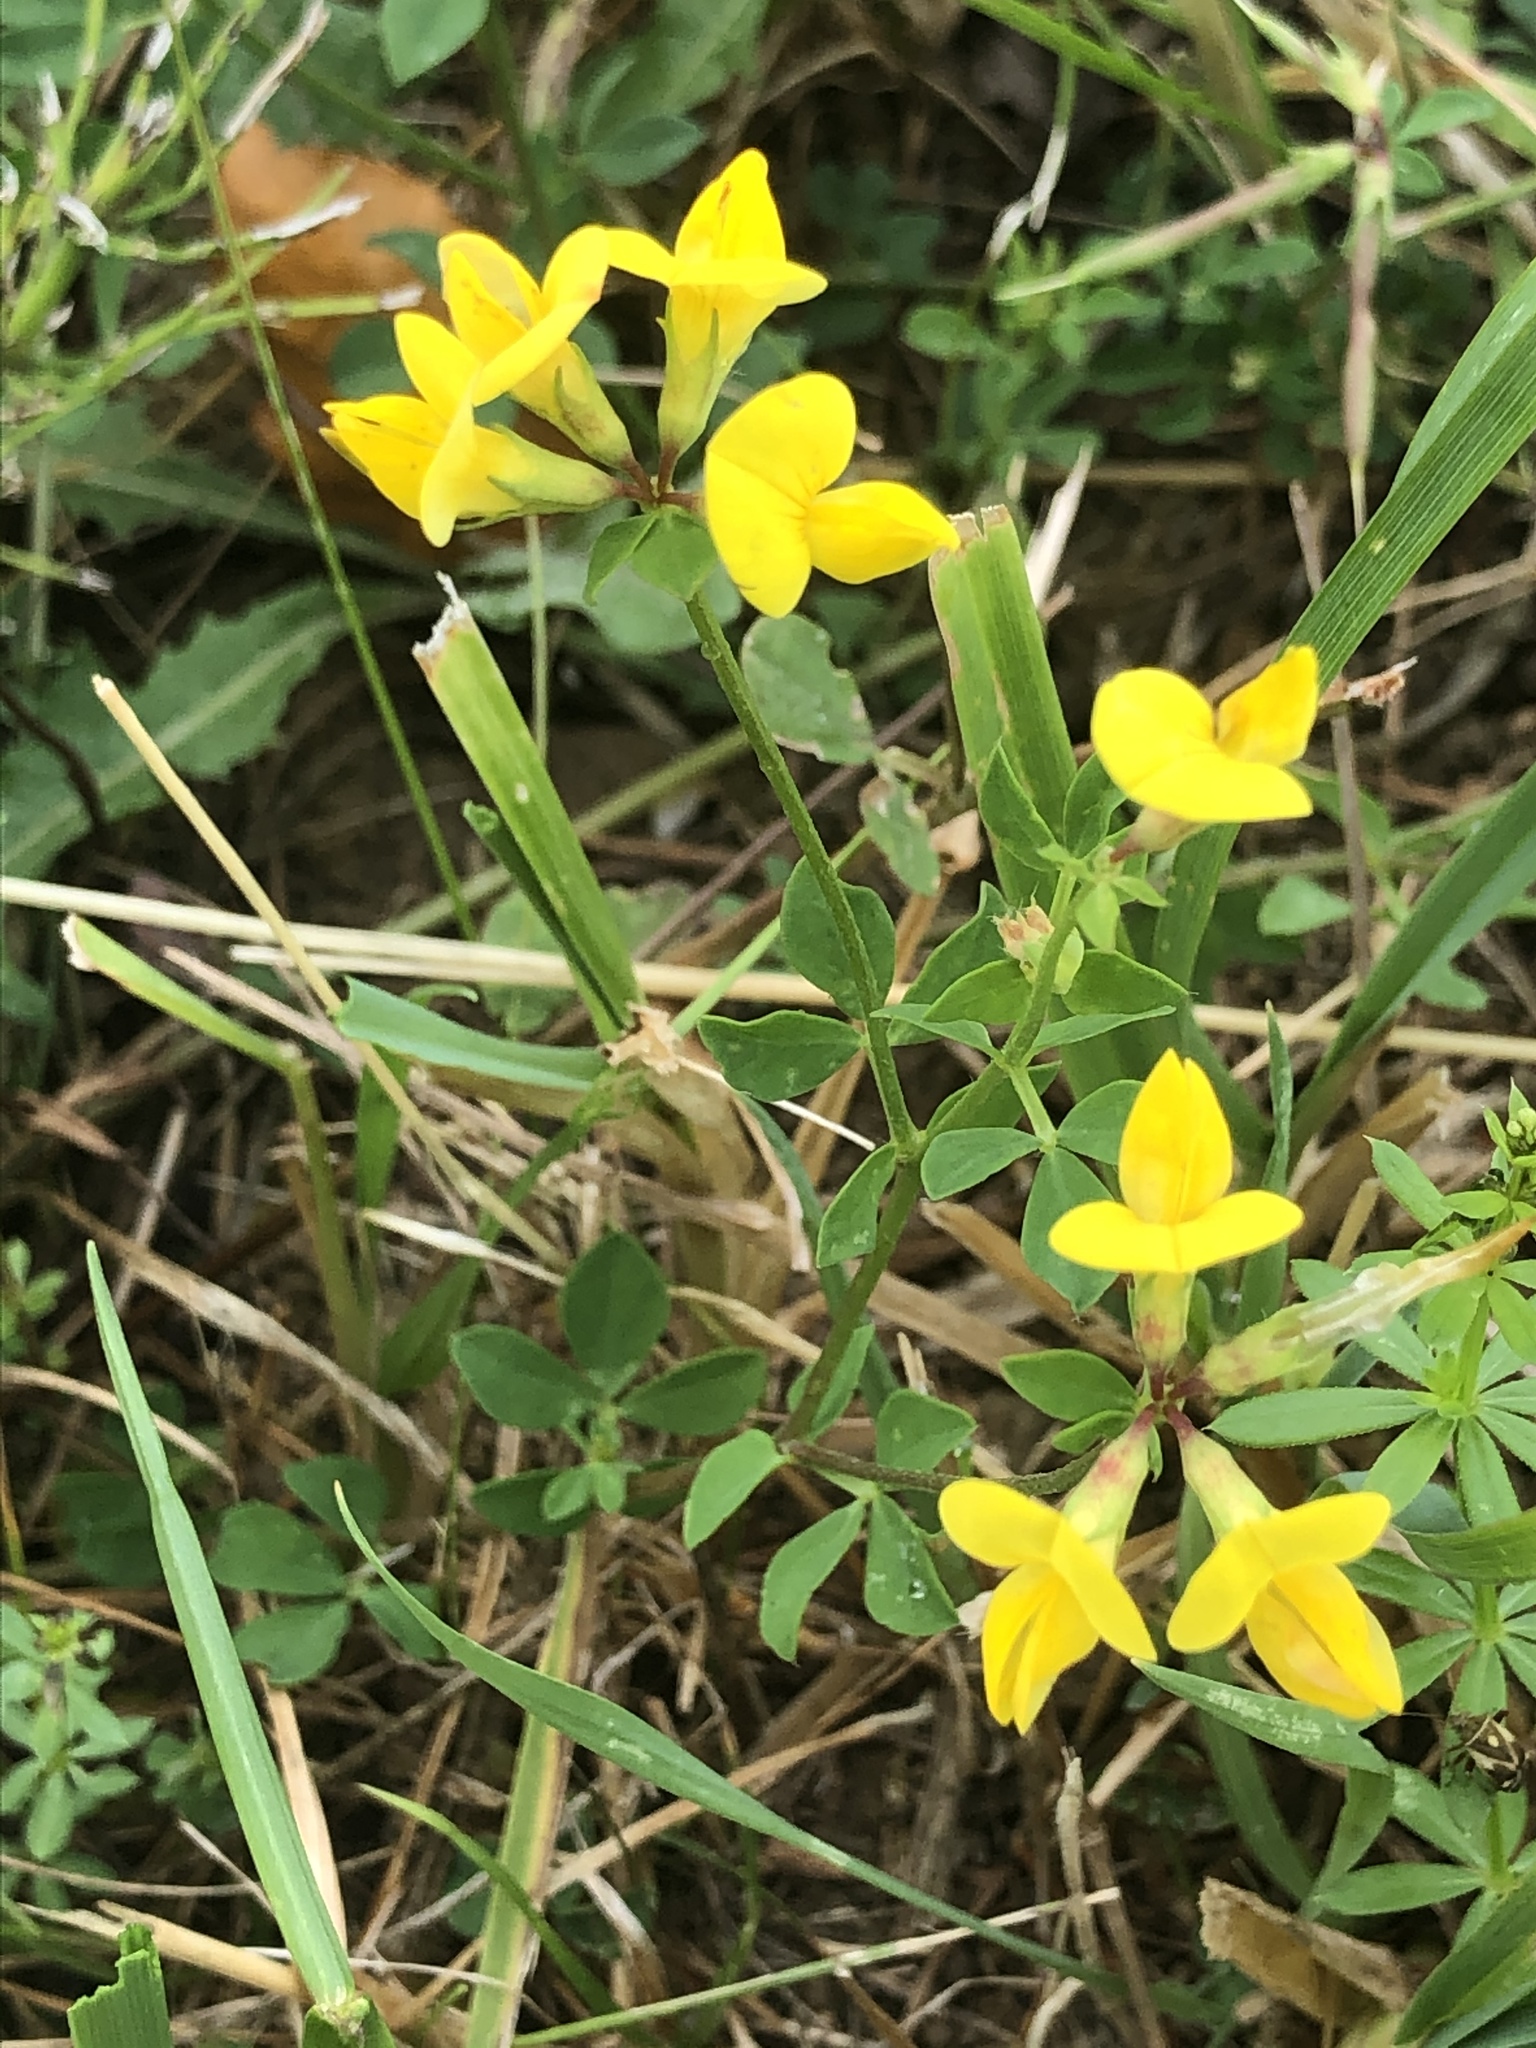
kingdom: Plantae
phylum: Tracheophyta
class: Magnoliopsida
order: Fabales
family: Fabaceae
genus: Lotus
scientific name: Lotus corniculatus
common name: Common bird's-foot-trefoil
